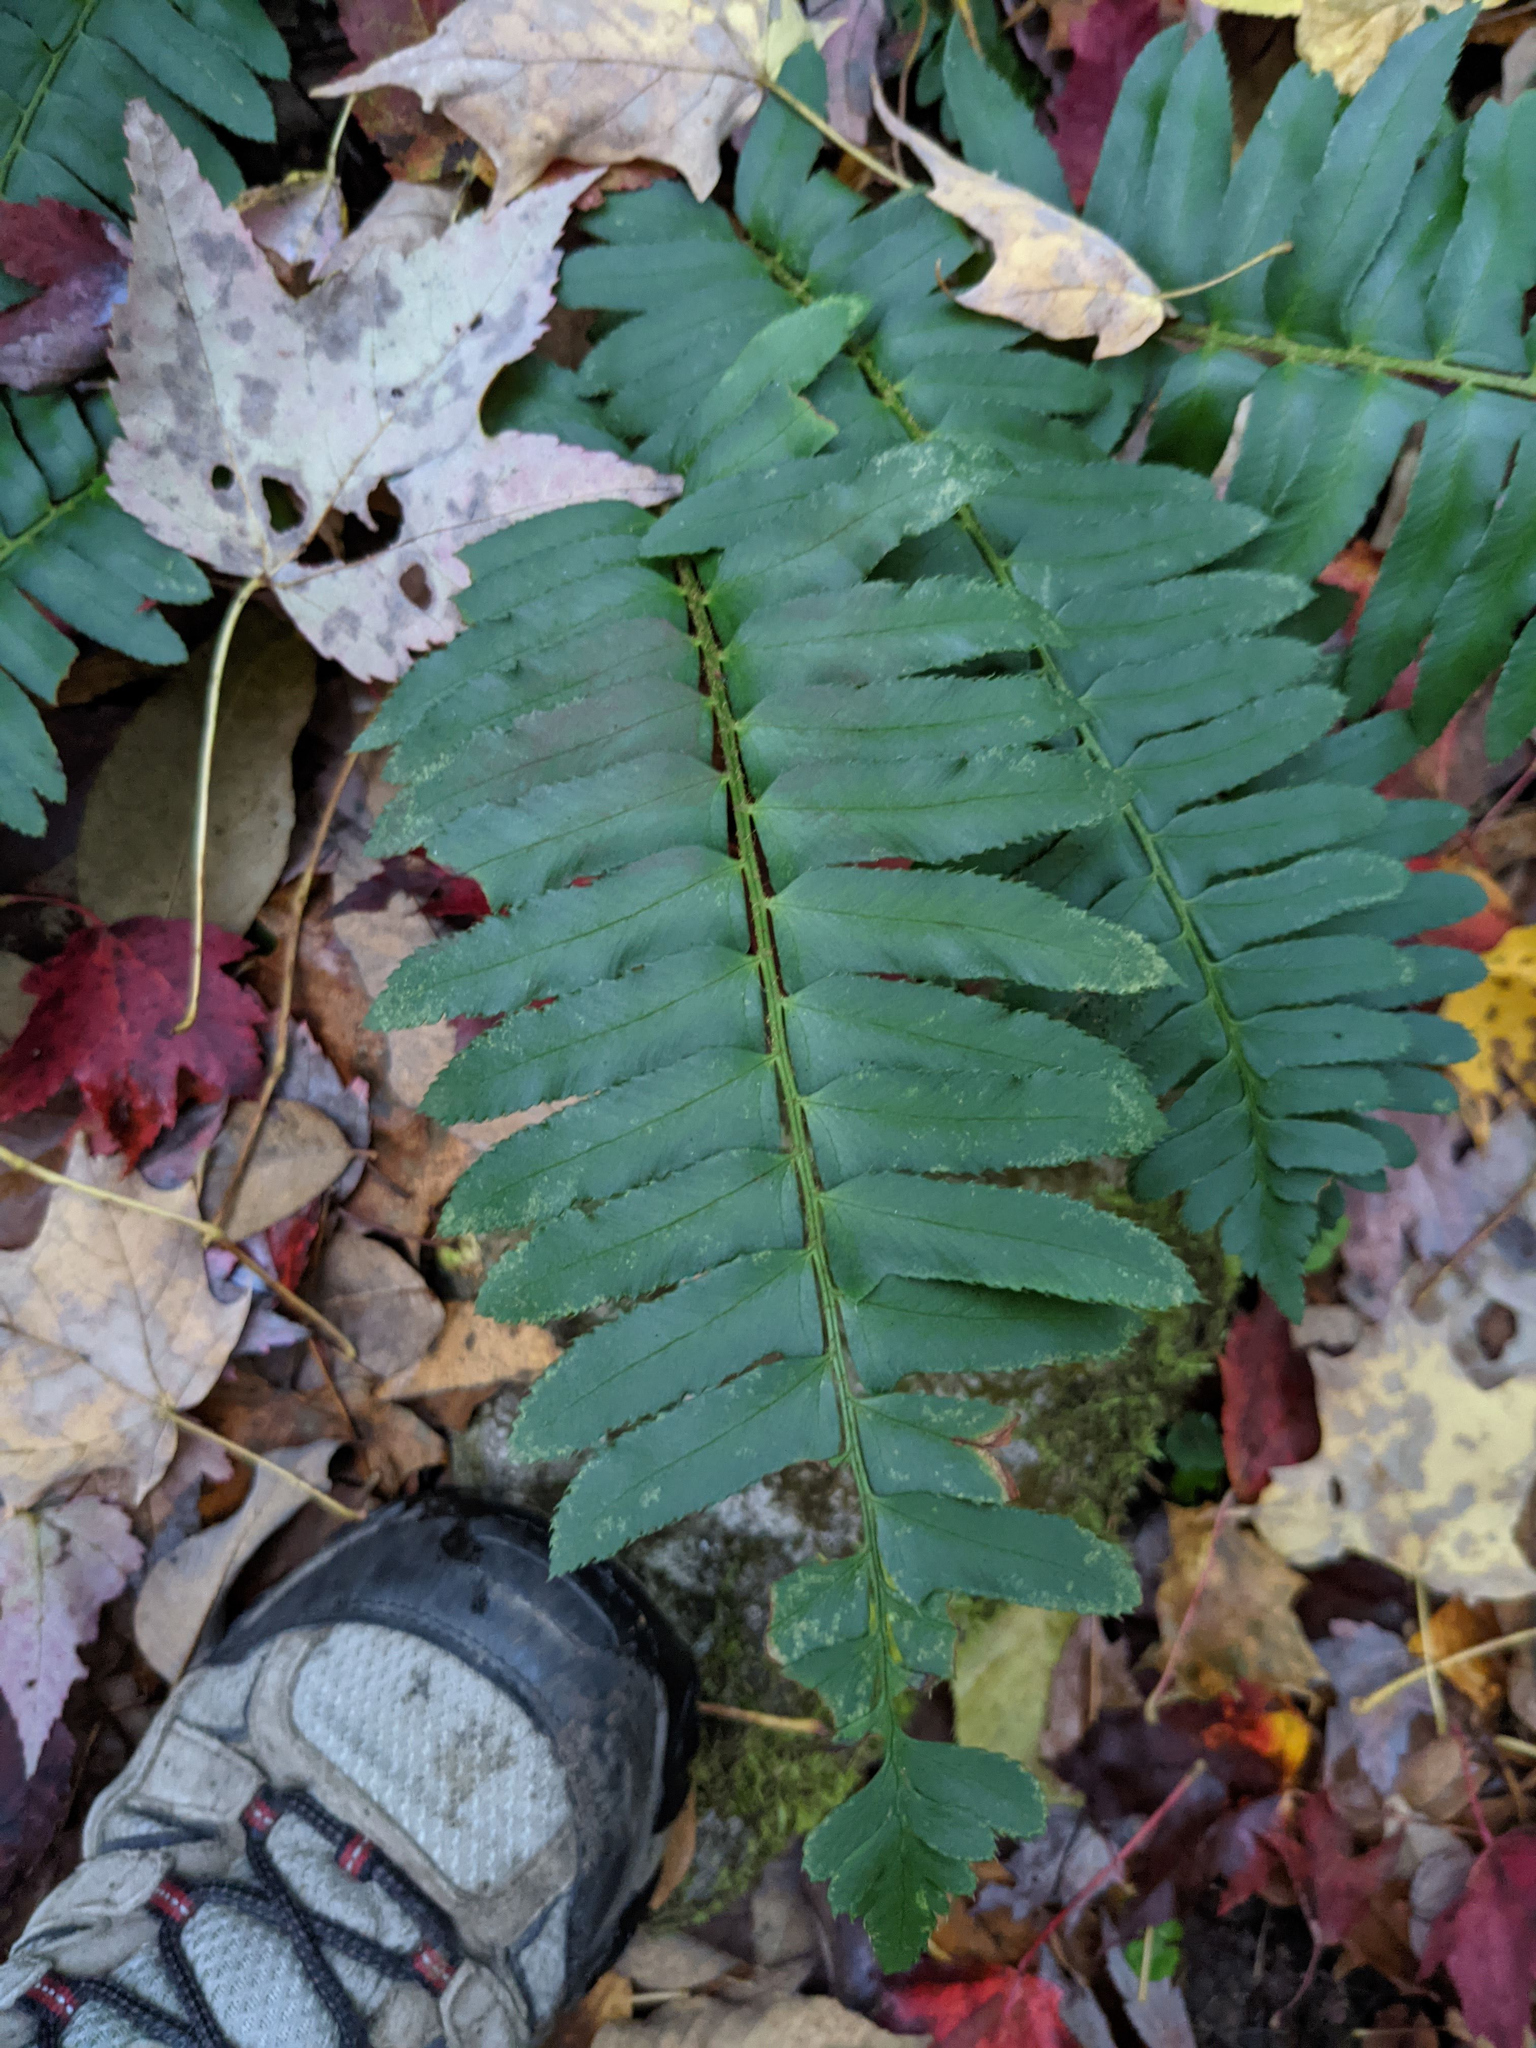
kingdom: Plantae
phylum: Tracheophyta
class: Polypodiopsida
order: Polypodiales
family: Dryopteridaceae
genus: Polystichum
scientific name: Polystichum acrostichoides
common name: Christmas fern
